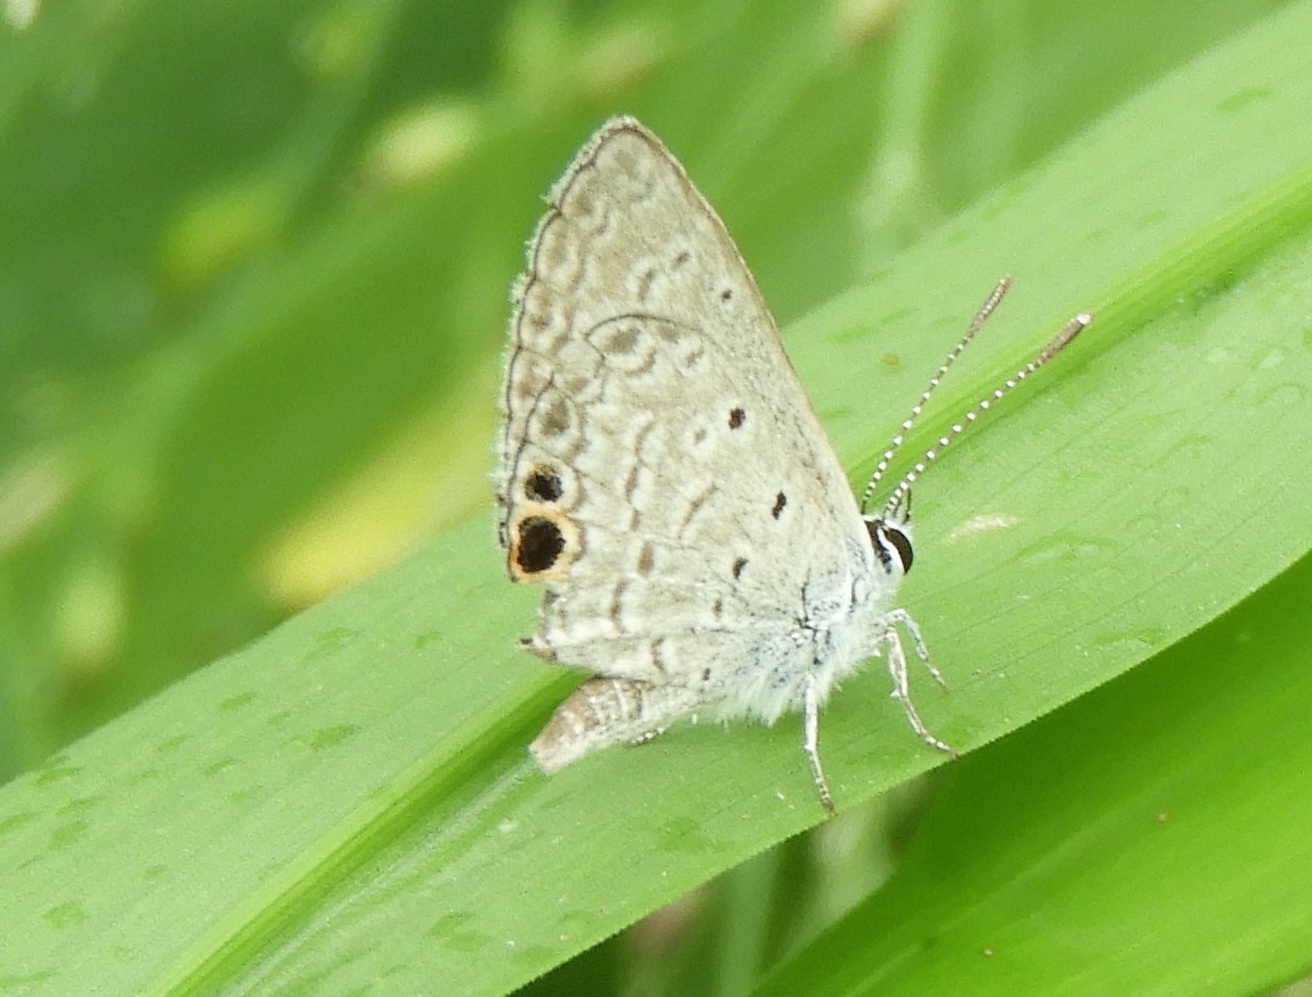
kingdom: Animalia
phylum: Arthropoda
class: Insecta
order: Lepidoptera
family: Lycaenidae
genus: Echinargus
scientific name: Echinargus isola
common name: Reakirt's blue
